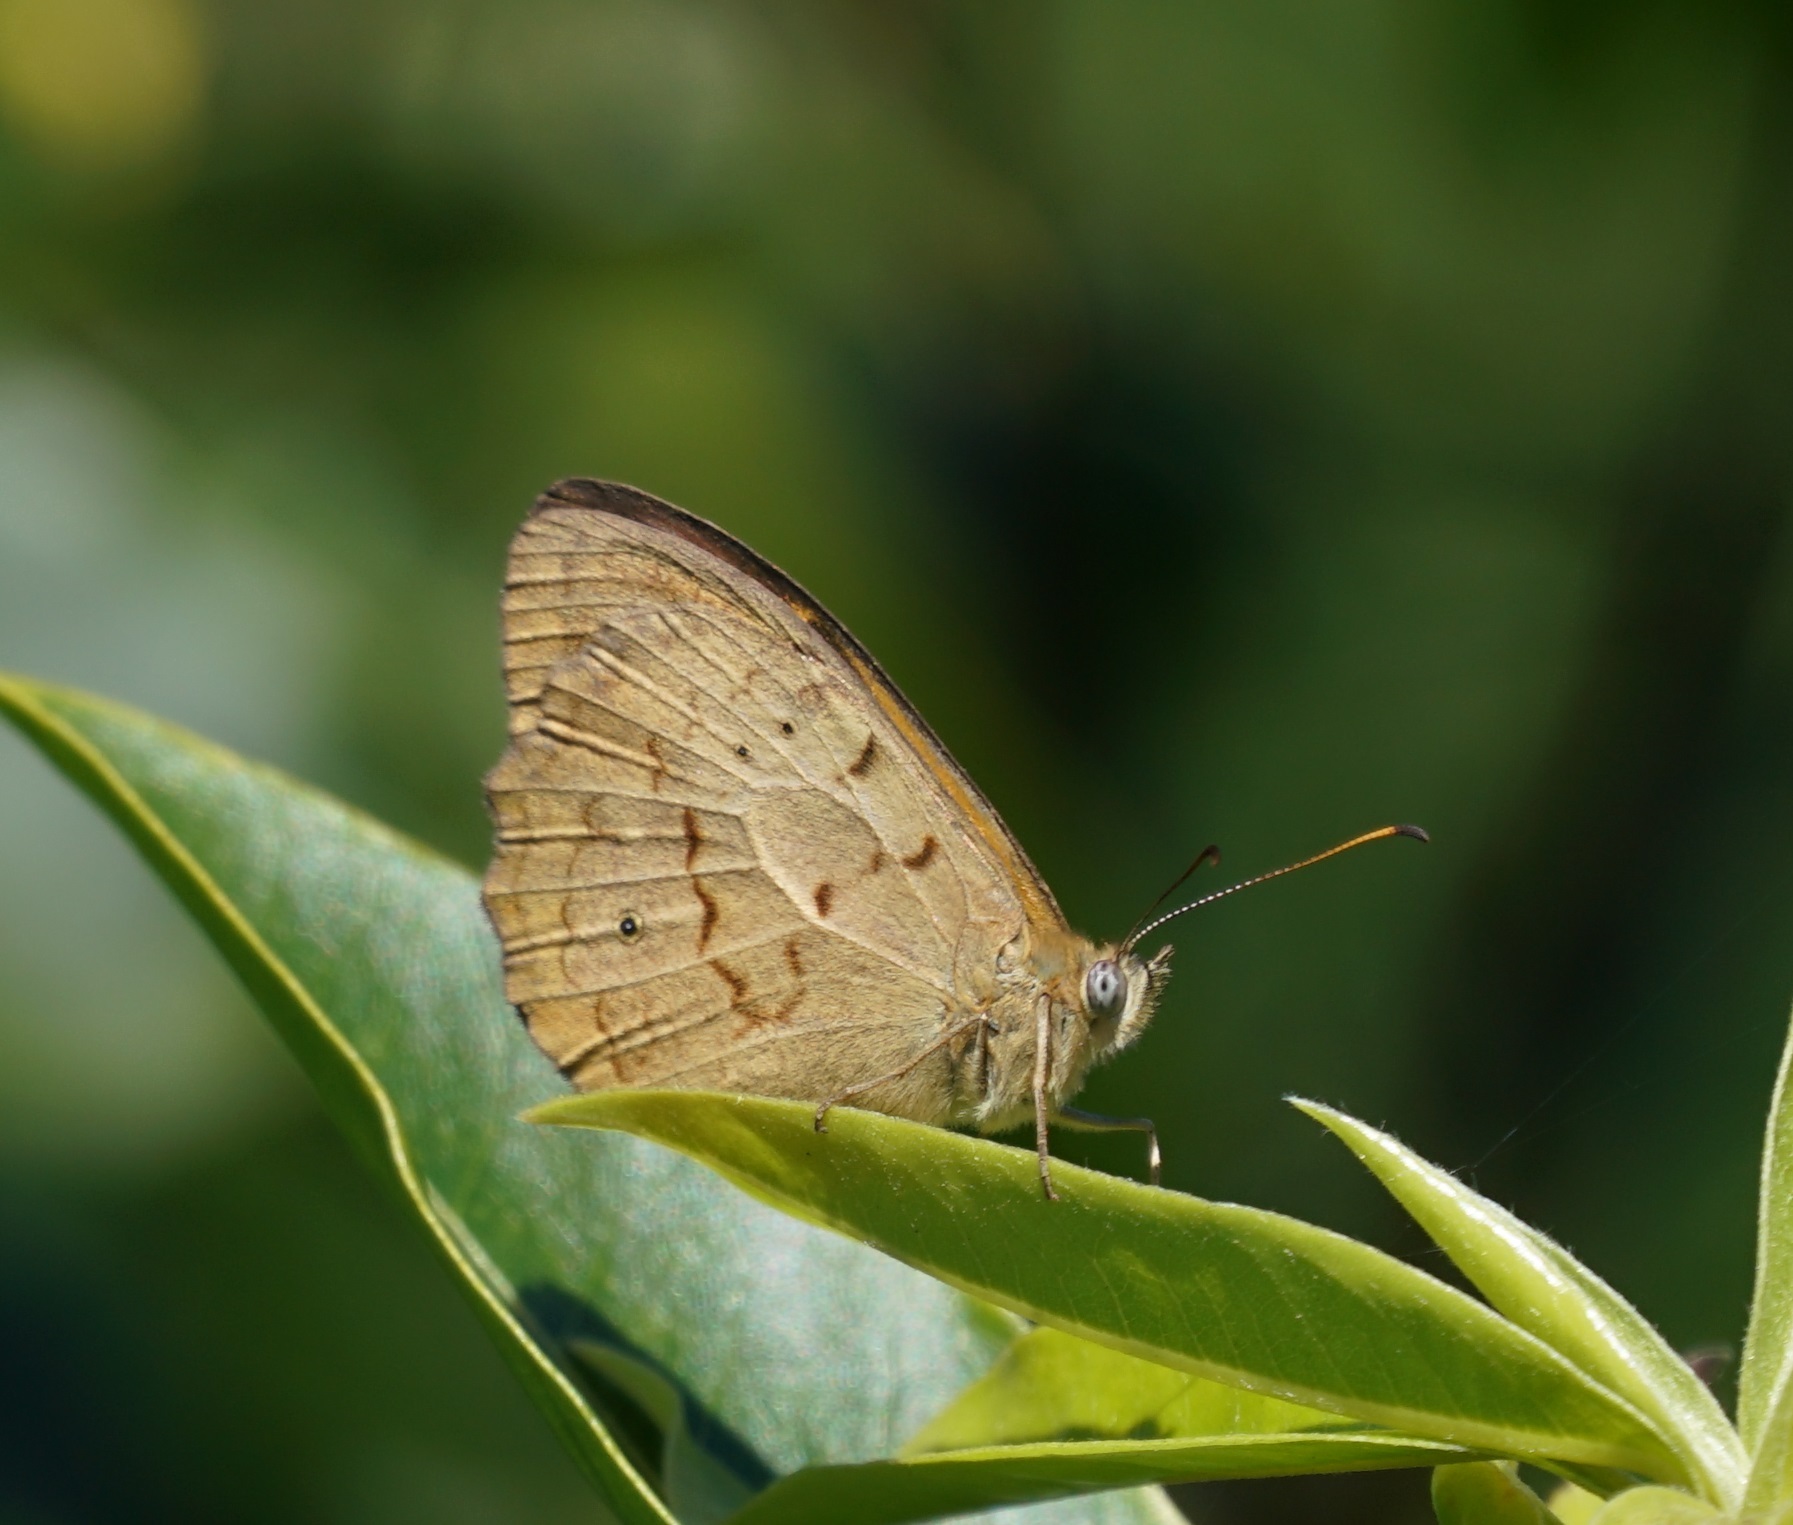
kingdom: Animalia
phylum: Arthropoda
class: Insecta
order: Lepidoptera
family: Nymphalidae
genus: Heteronympha
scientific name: Heteronympha merope
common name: Common brown
